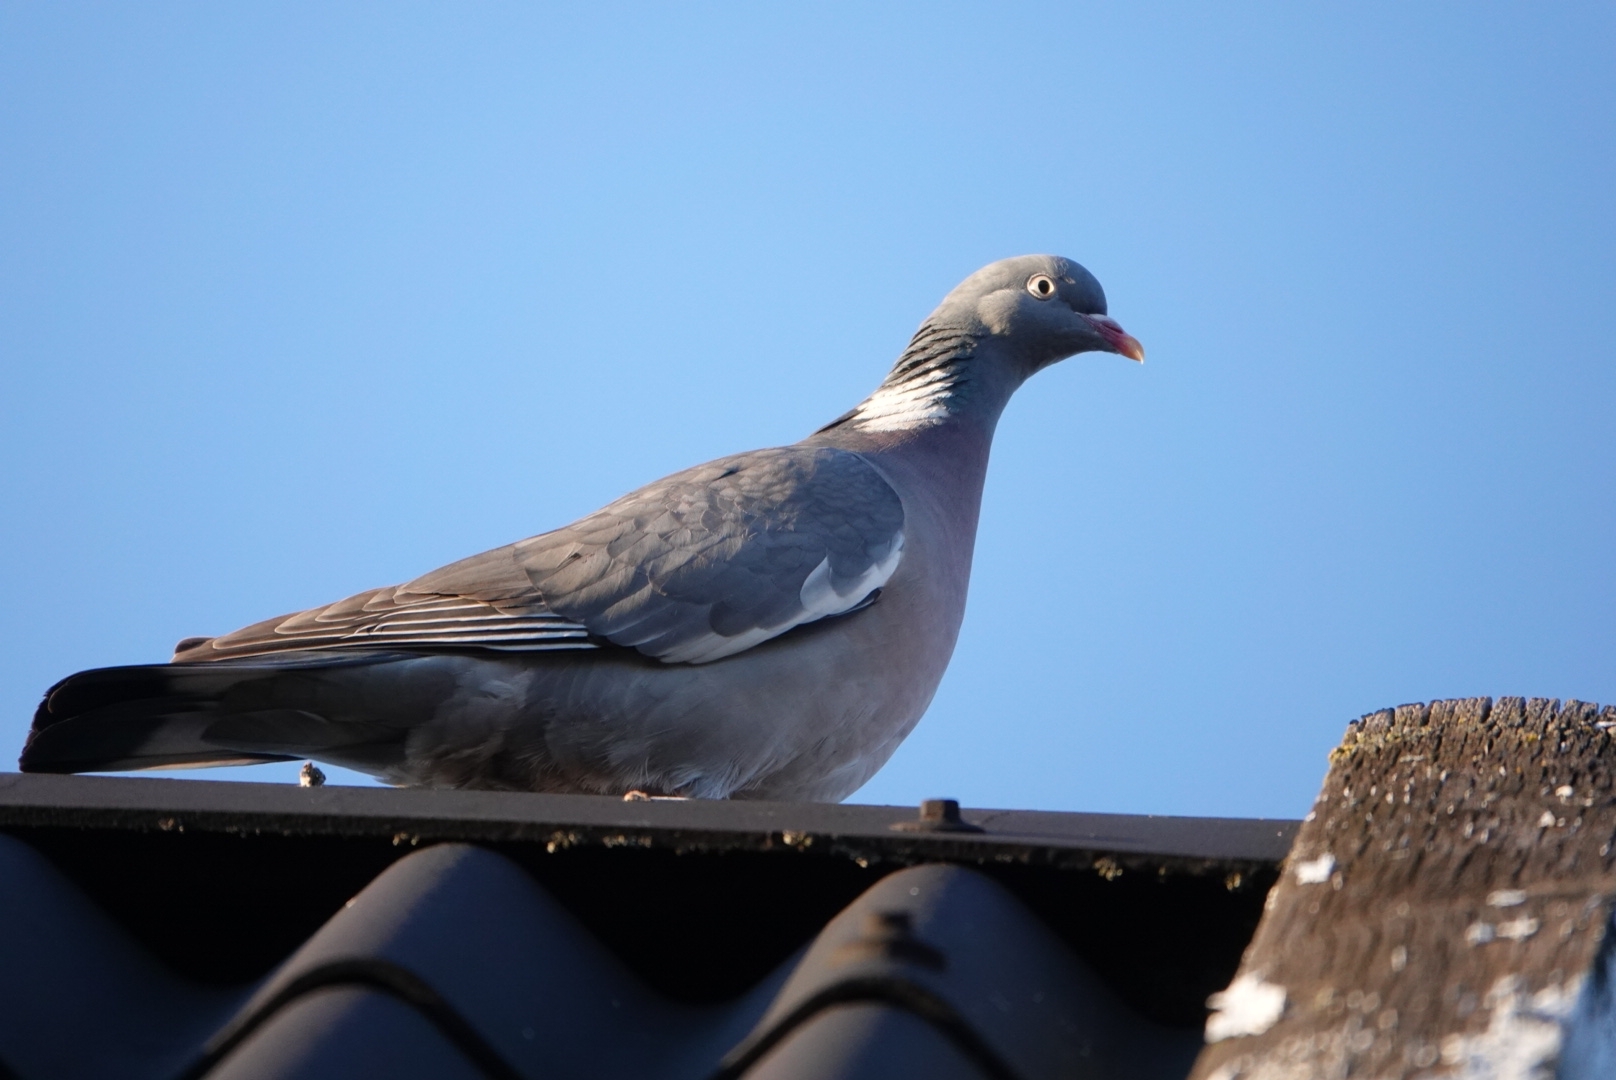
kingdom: Animalia
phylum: Chordata
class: Aves
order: Columbiformes
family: Columbidae
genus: Columba
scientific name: Columba palumbus
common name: Common wood pigeon
